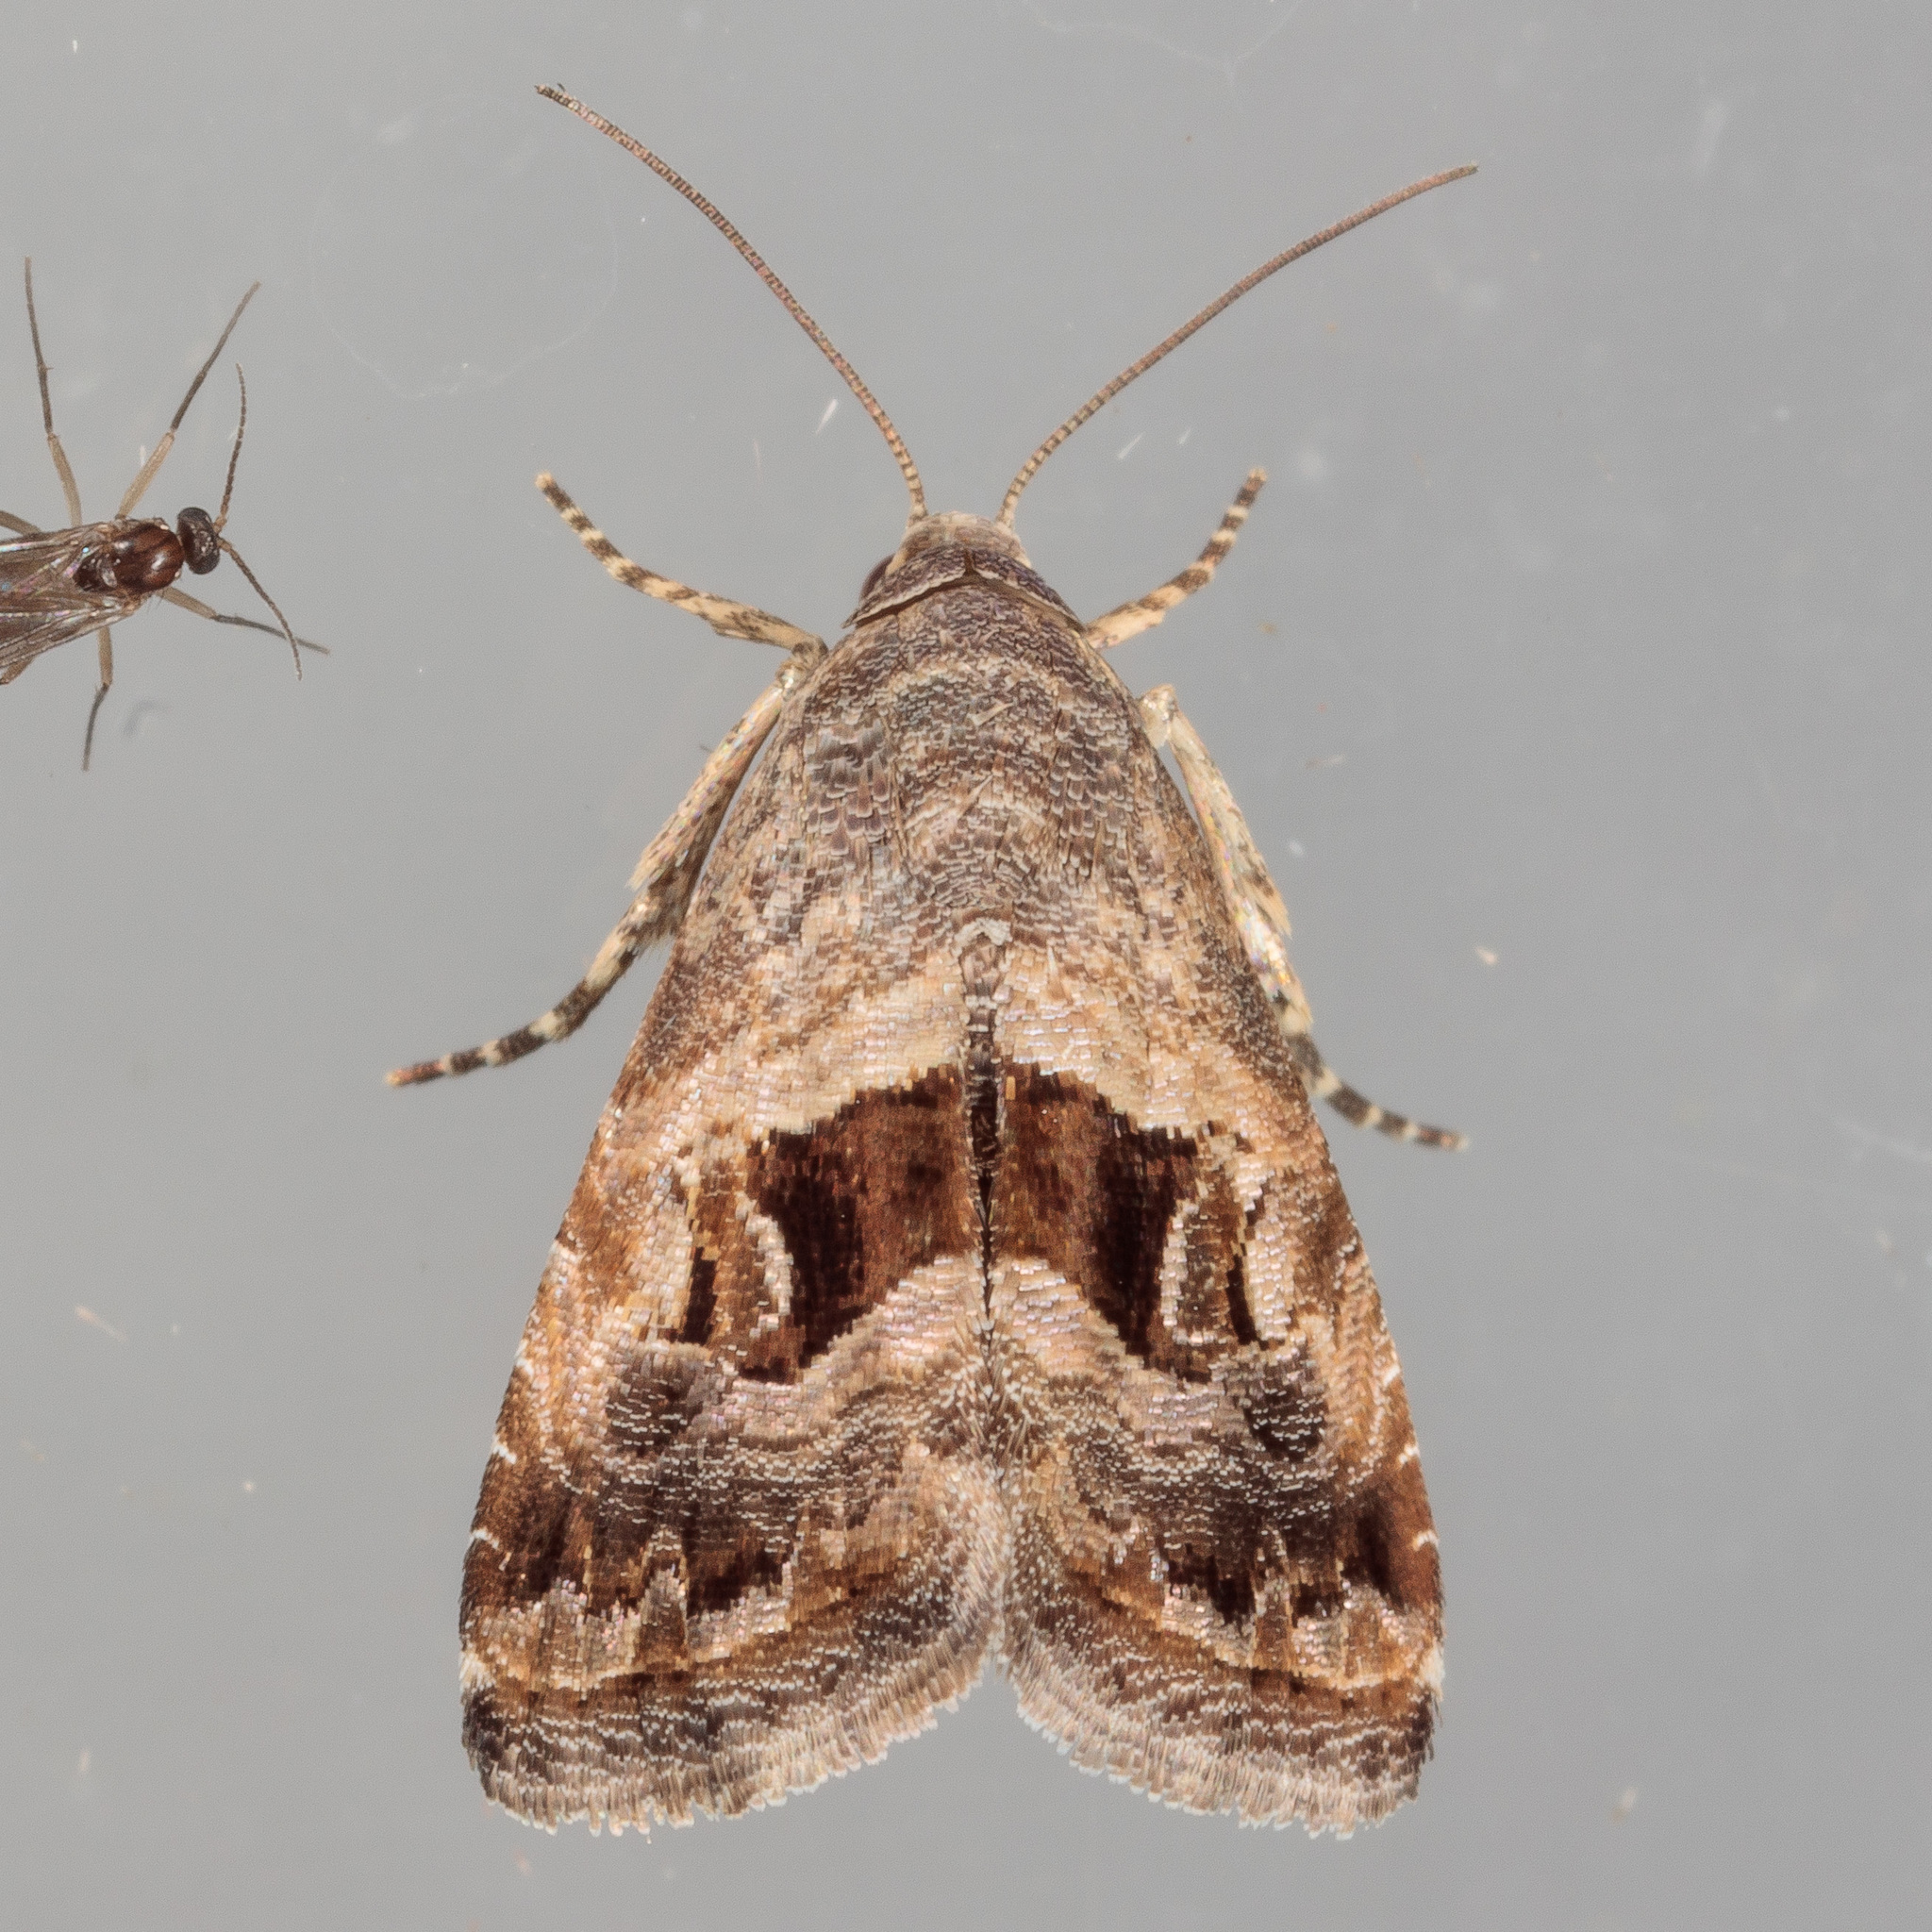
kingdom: Animalia
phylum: Arthropoda
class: Insecta
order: Lepidoptera
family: Noctuidae
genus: Tripudia
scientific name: Tripudia quadrifera
